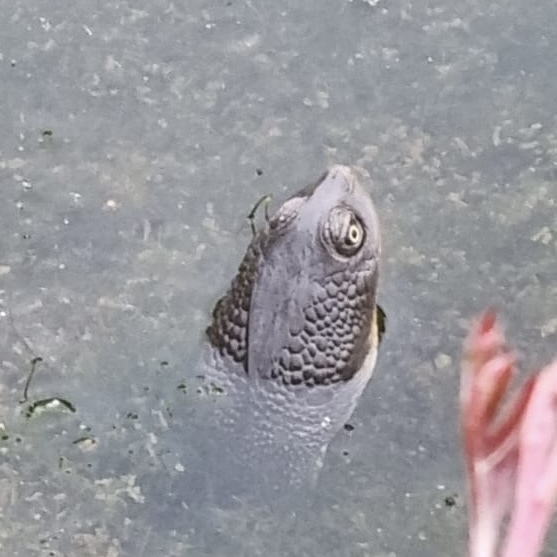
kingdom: Animalia
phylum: Chordata
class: Testudines
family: Chelidae
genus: Chelodina
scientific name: Chelodina longicollis
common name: Eastern snake-necked turtle
